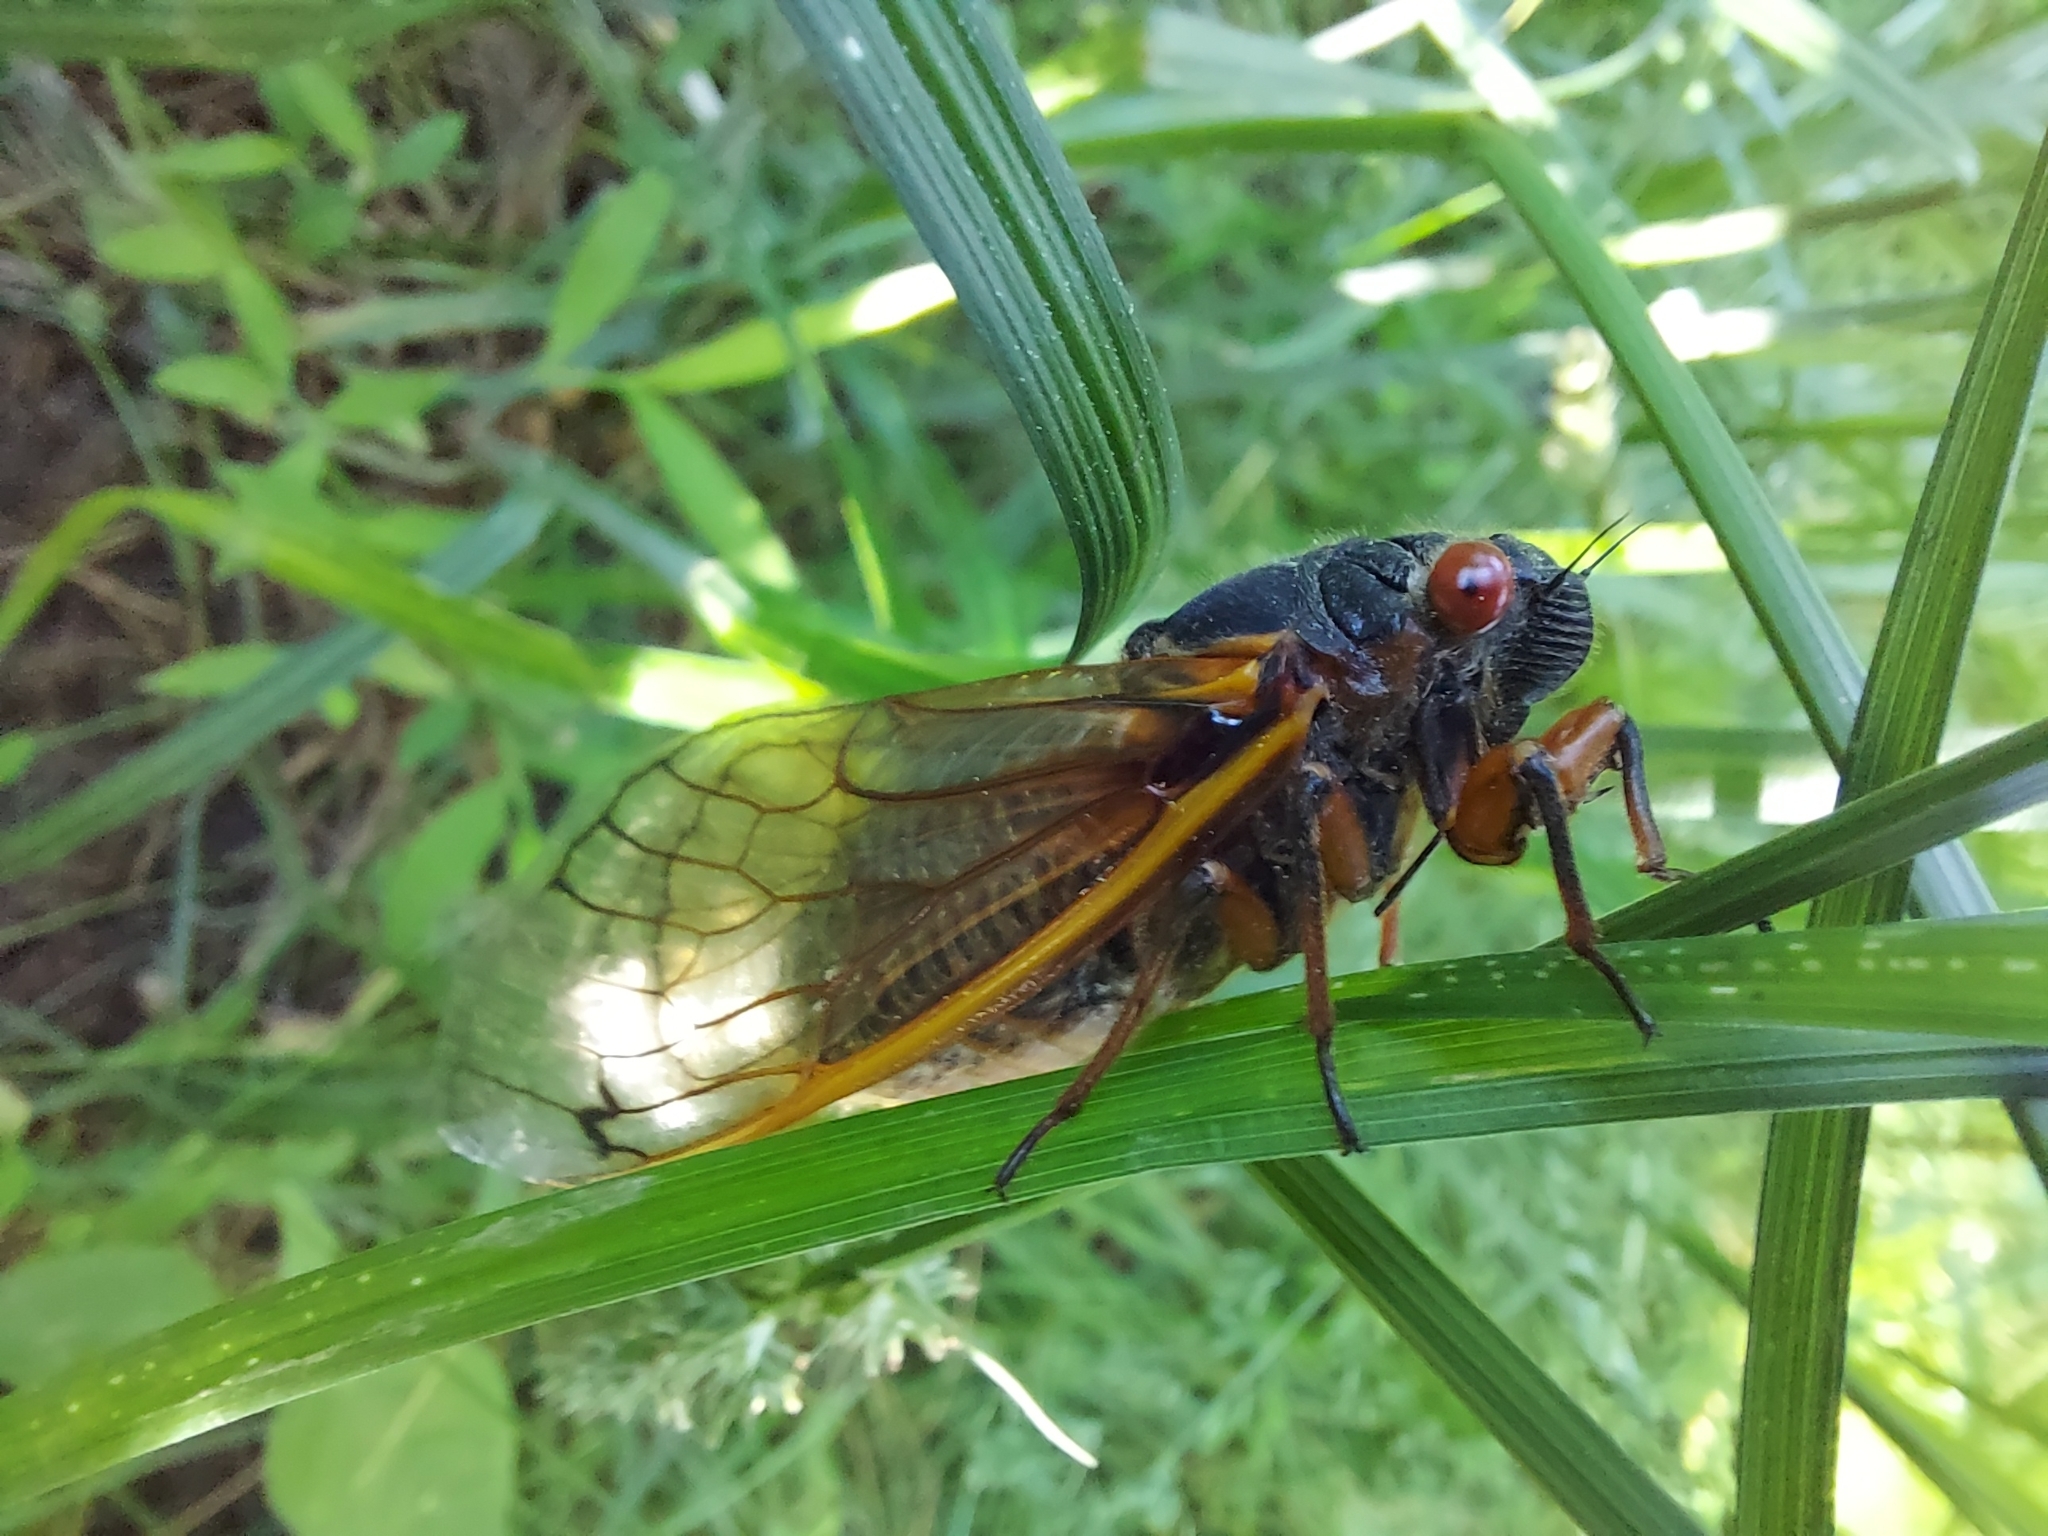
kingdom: Animalia
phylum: Arthropoda
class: Insecta
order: Hemiptera
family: Cicadidae
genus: Magicicada
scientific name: Magicicada septendecim
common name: Periodical cicada
